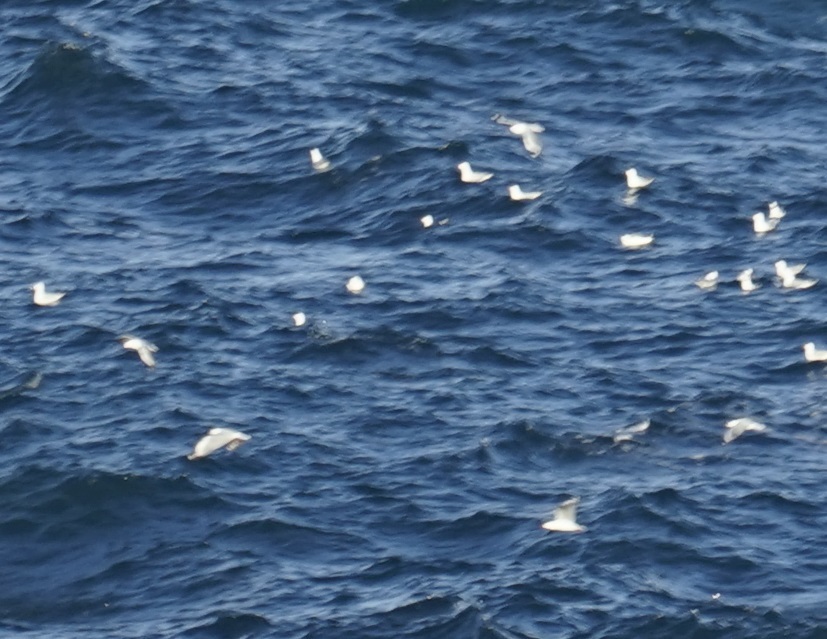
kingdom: Animalia
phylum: Chordata
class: Aves
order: Charadriiformes
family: Laridae
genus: Chroicocephalus
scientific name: Chroicocephalus novaehollandiae
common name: Silver gull
